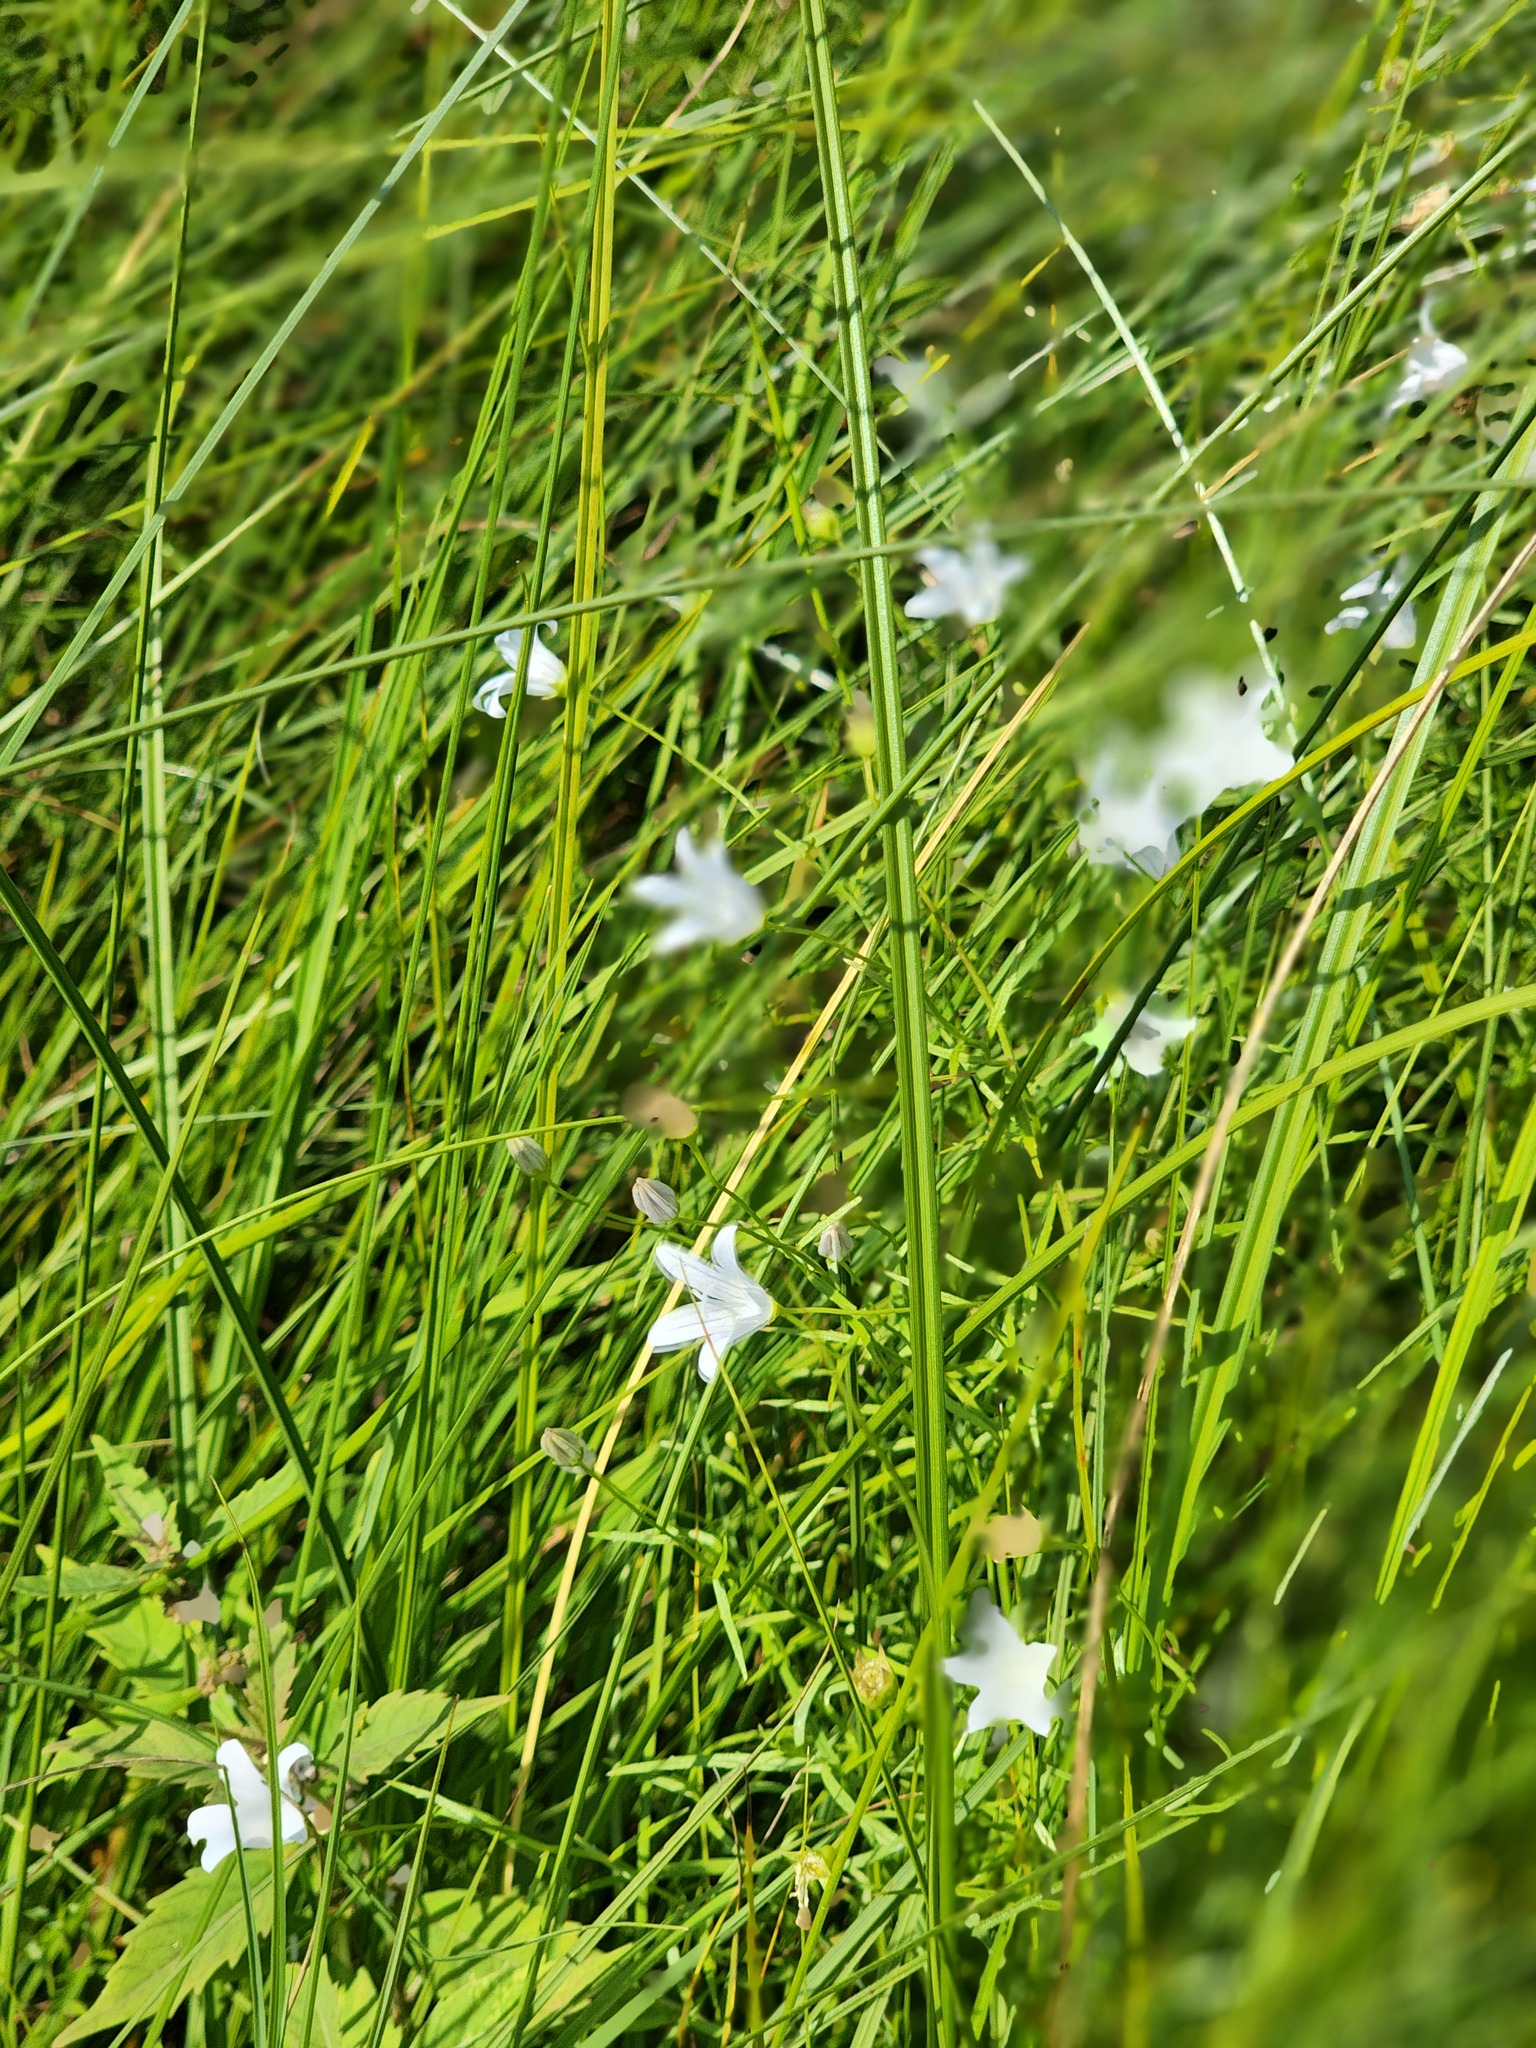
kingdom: Plantae
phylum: Tracheophyta
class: Magnoliopsida
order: Asterales
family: Campanulaceae
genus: Palustricodon
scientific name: Palustricodon aparinoides
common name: Bedstraw bellflower
